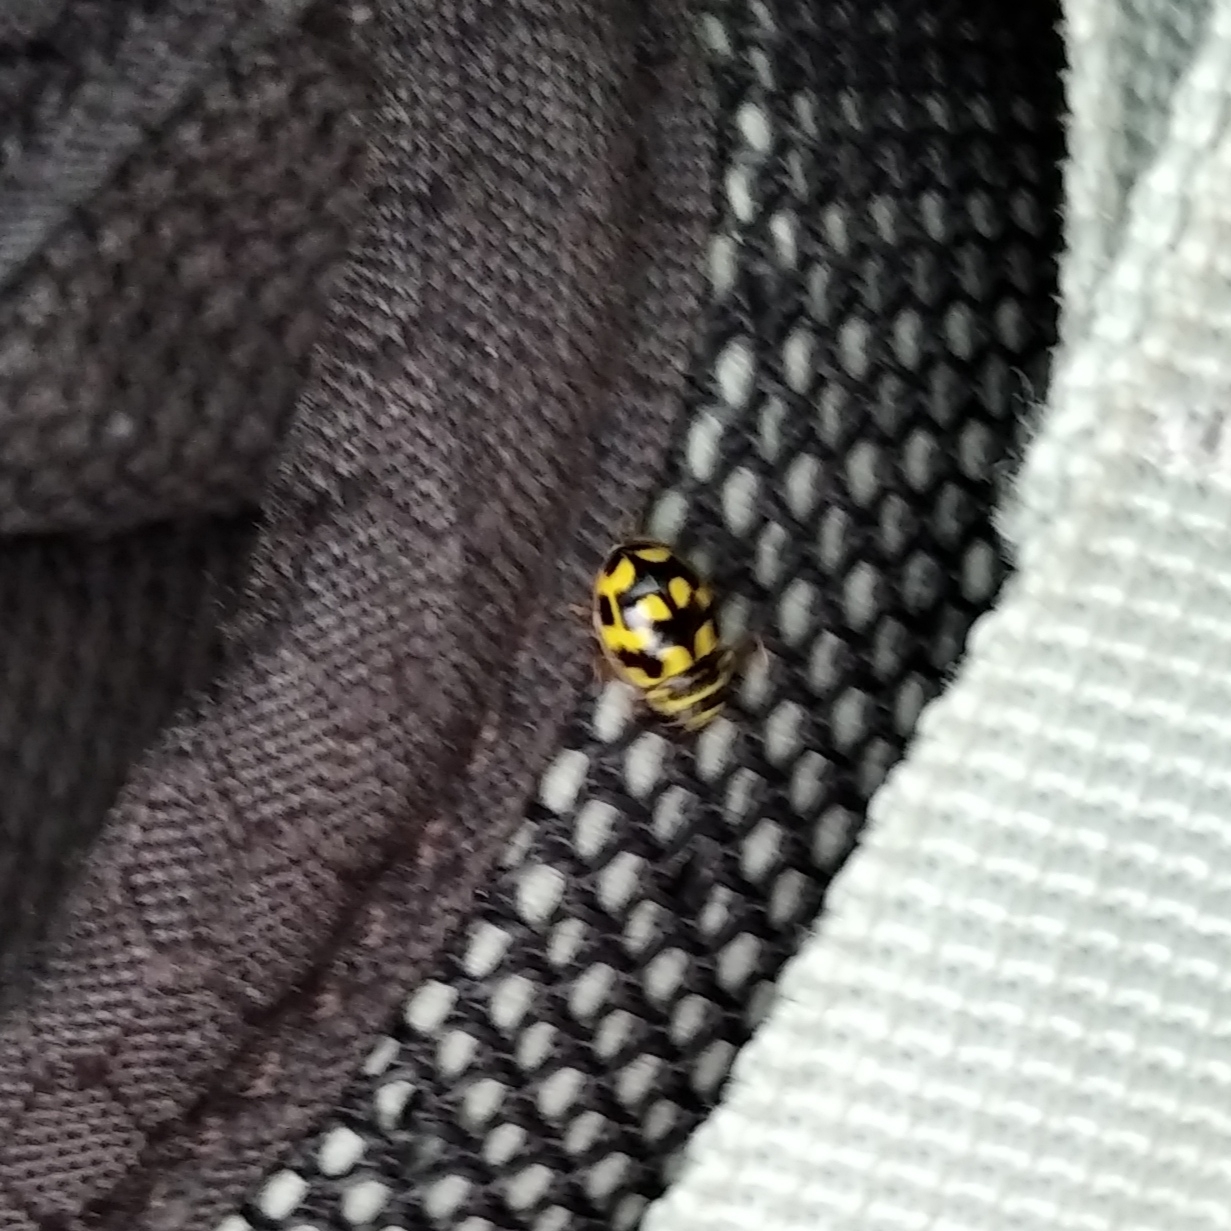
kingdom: Animalia
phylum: Arthropoda
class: Insecta
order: Coleoptera
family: Coccinellidae
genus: Propylaea
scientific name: Propylaea quatuordecimpunctata
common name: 14-spotted ladybird beetle
